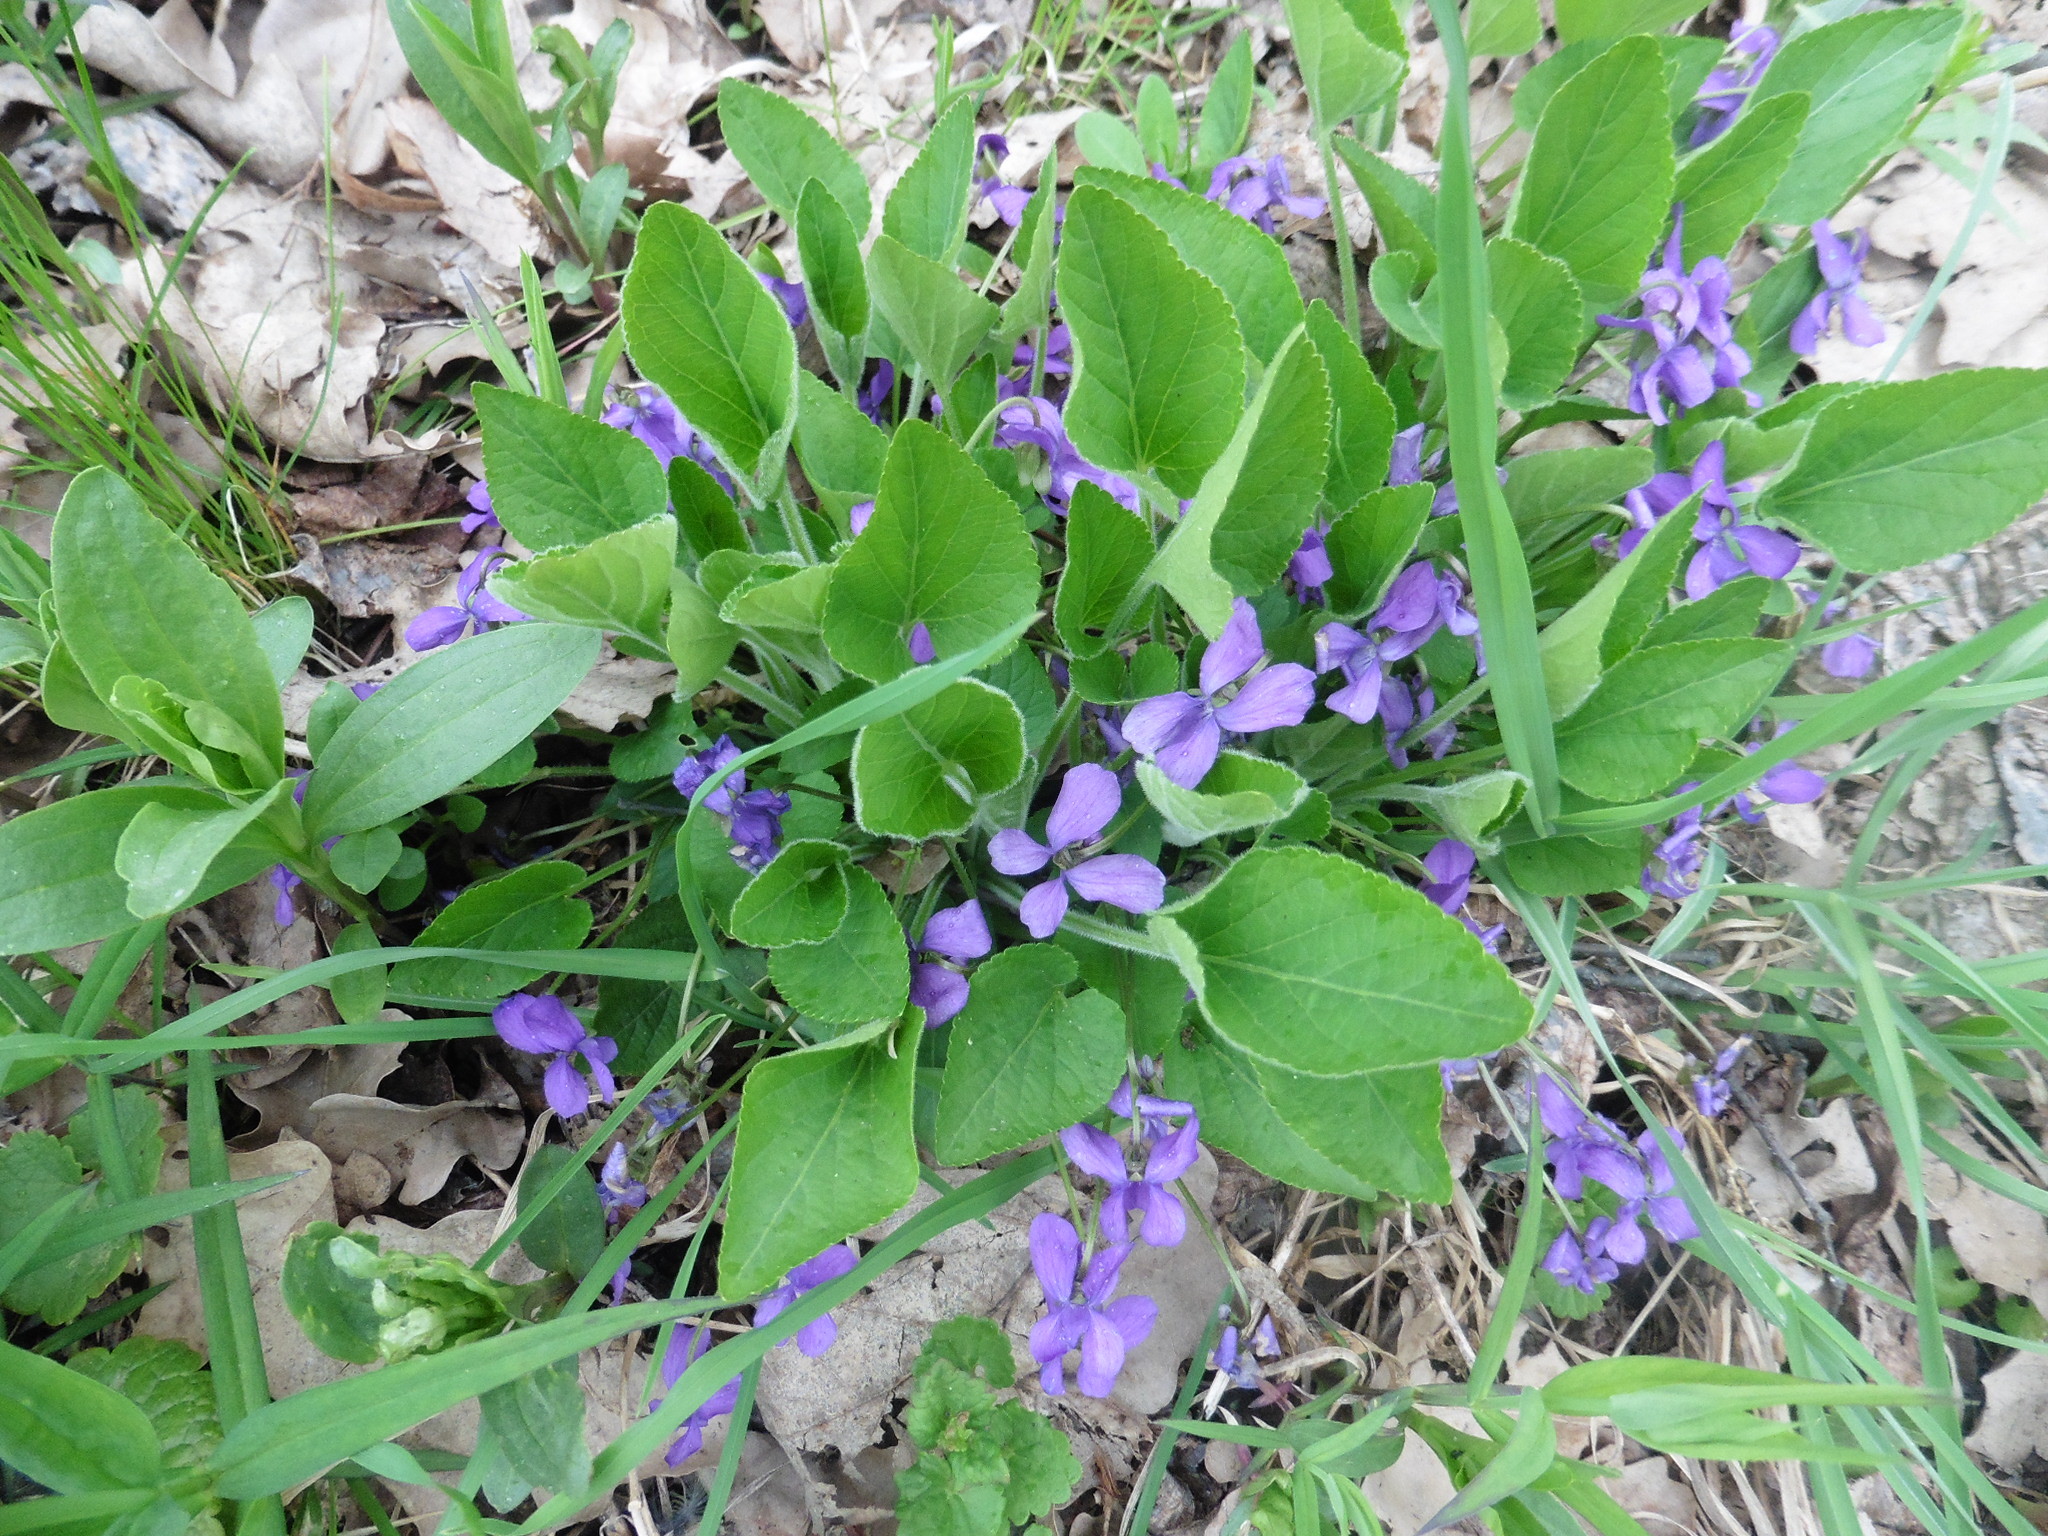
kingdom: Plantae
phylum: Tracheophyta
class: Magnoliopsida
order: Malpighiales
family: Violaceae
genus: Viola
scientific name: Viola hirta
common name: Hairy violet
